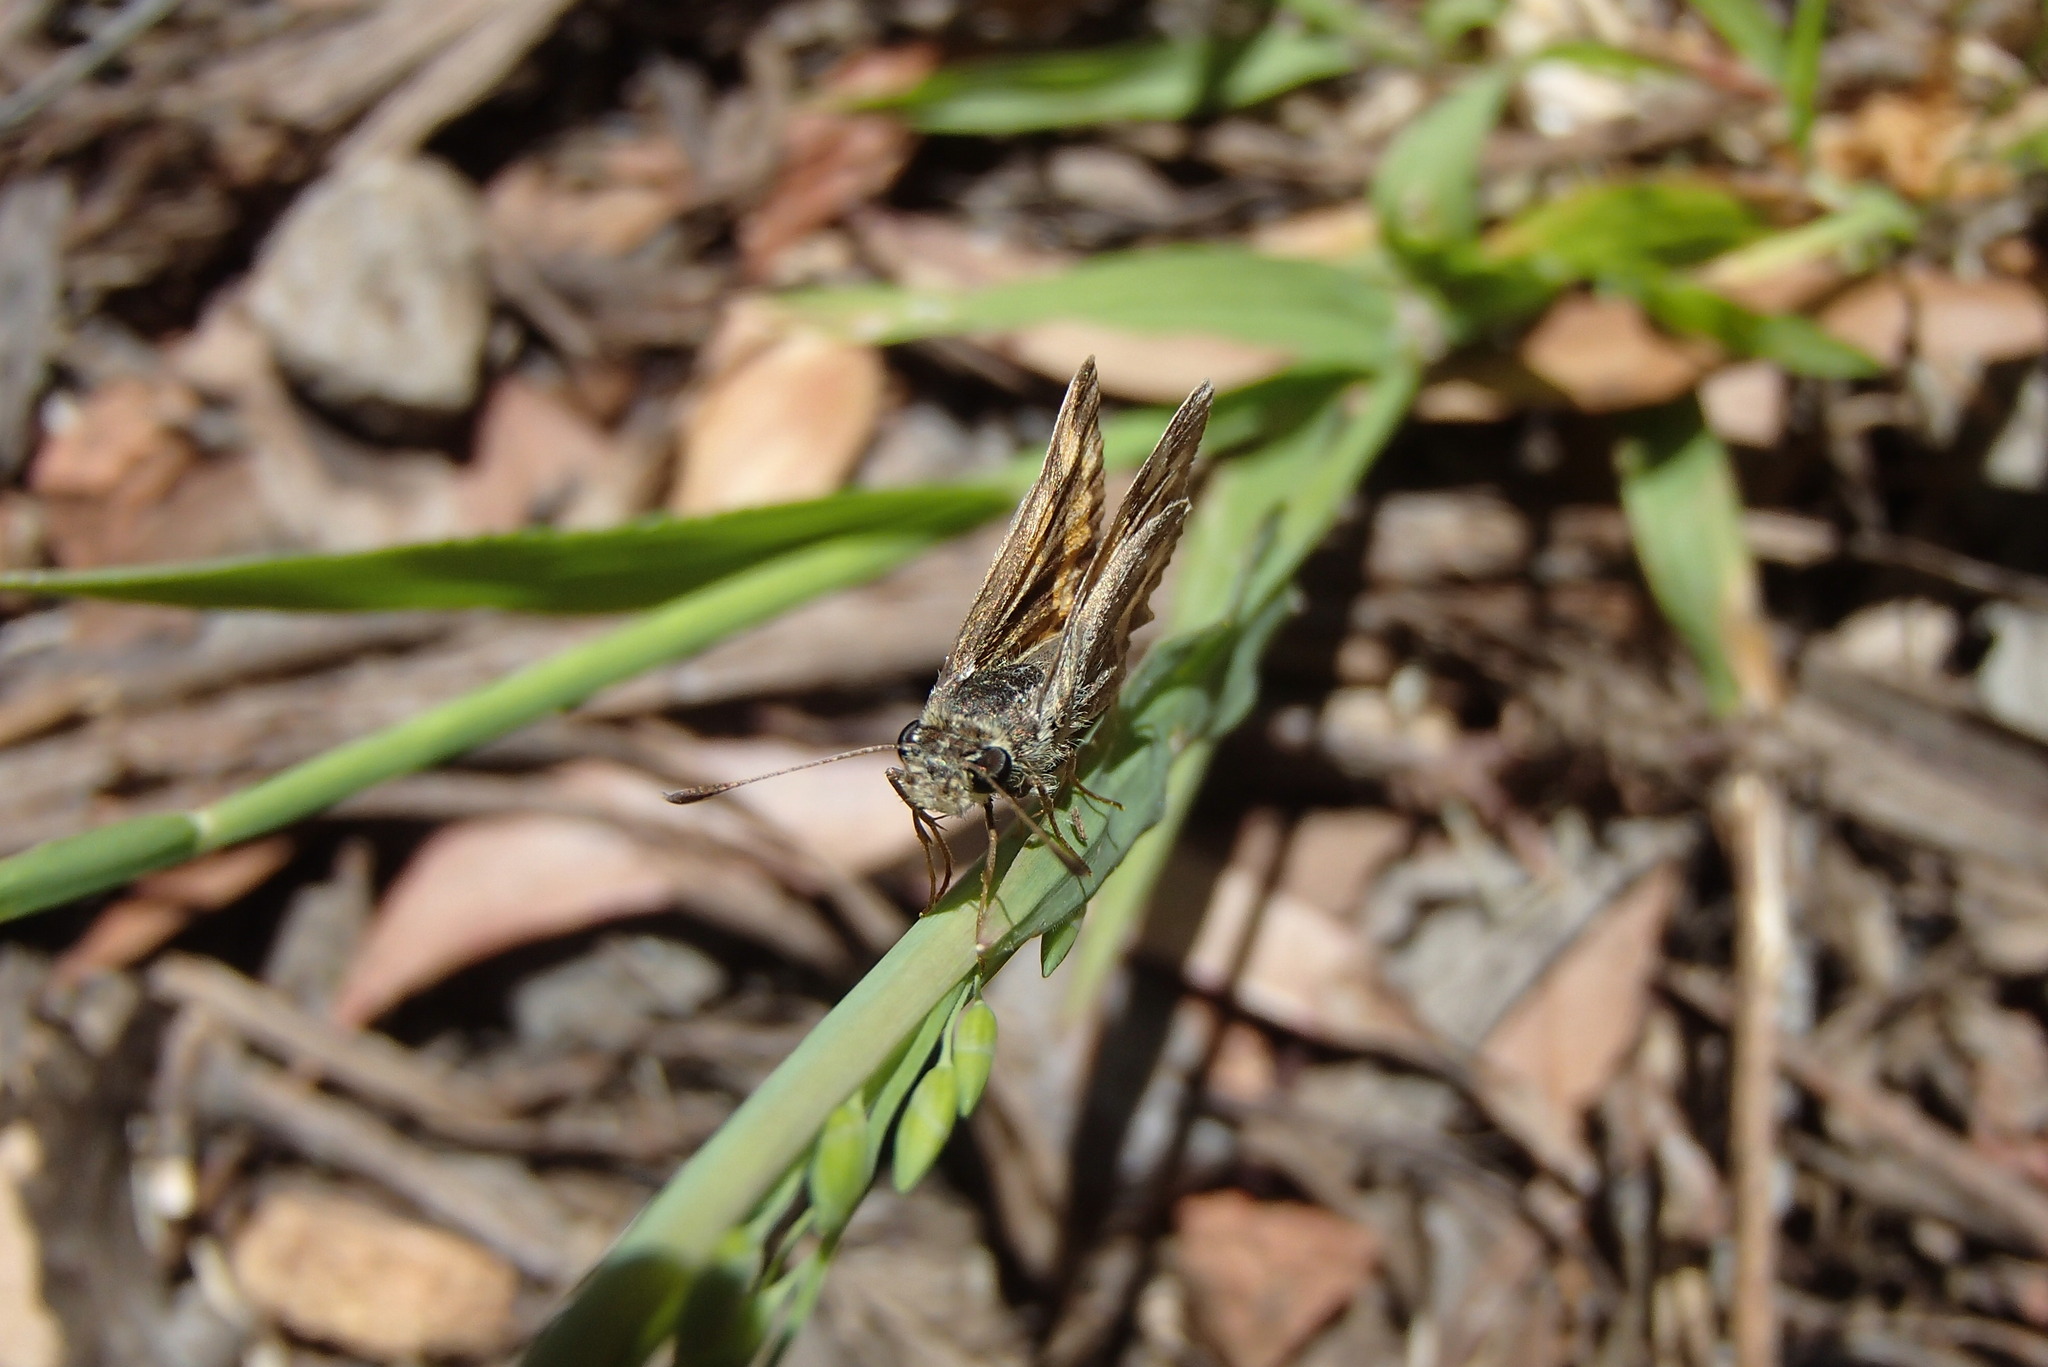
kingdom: Animalia
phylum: Arthropoda
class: Insecta
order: Lepidoptera
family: Hesperiidae
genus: Ocybadistes
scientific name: Ocybadistes walkeri
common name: Yellow-banded dart
